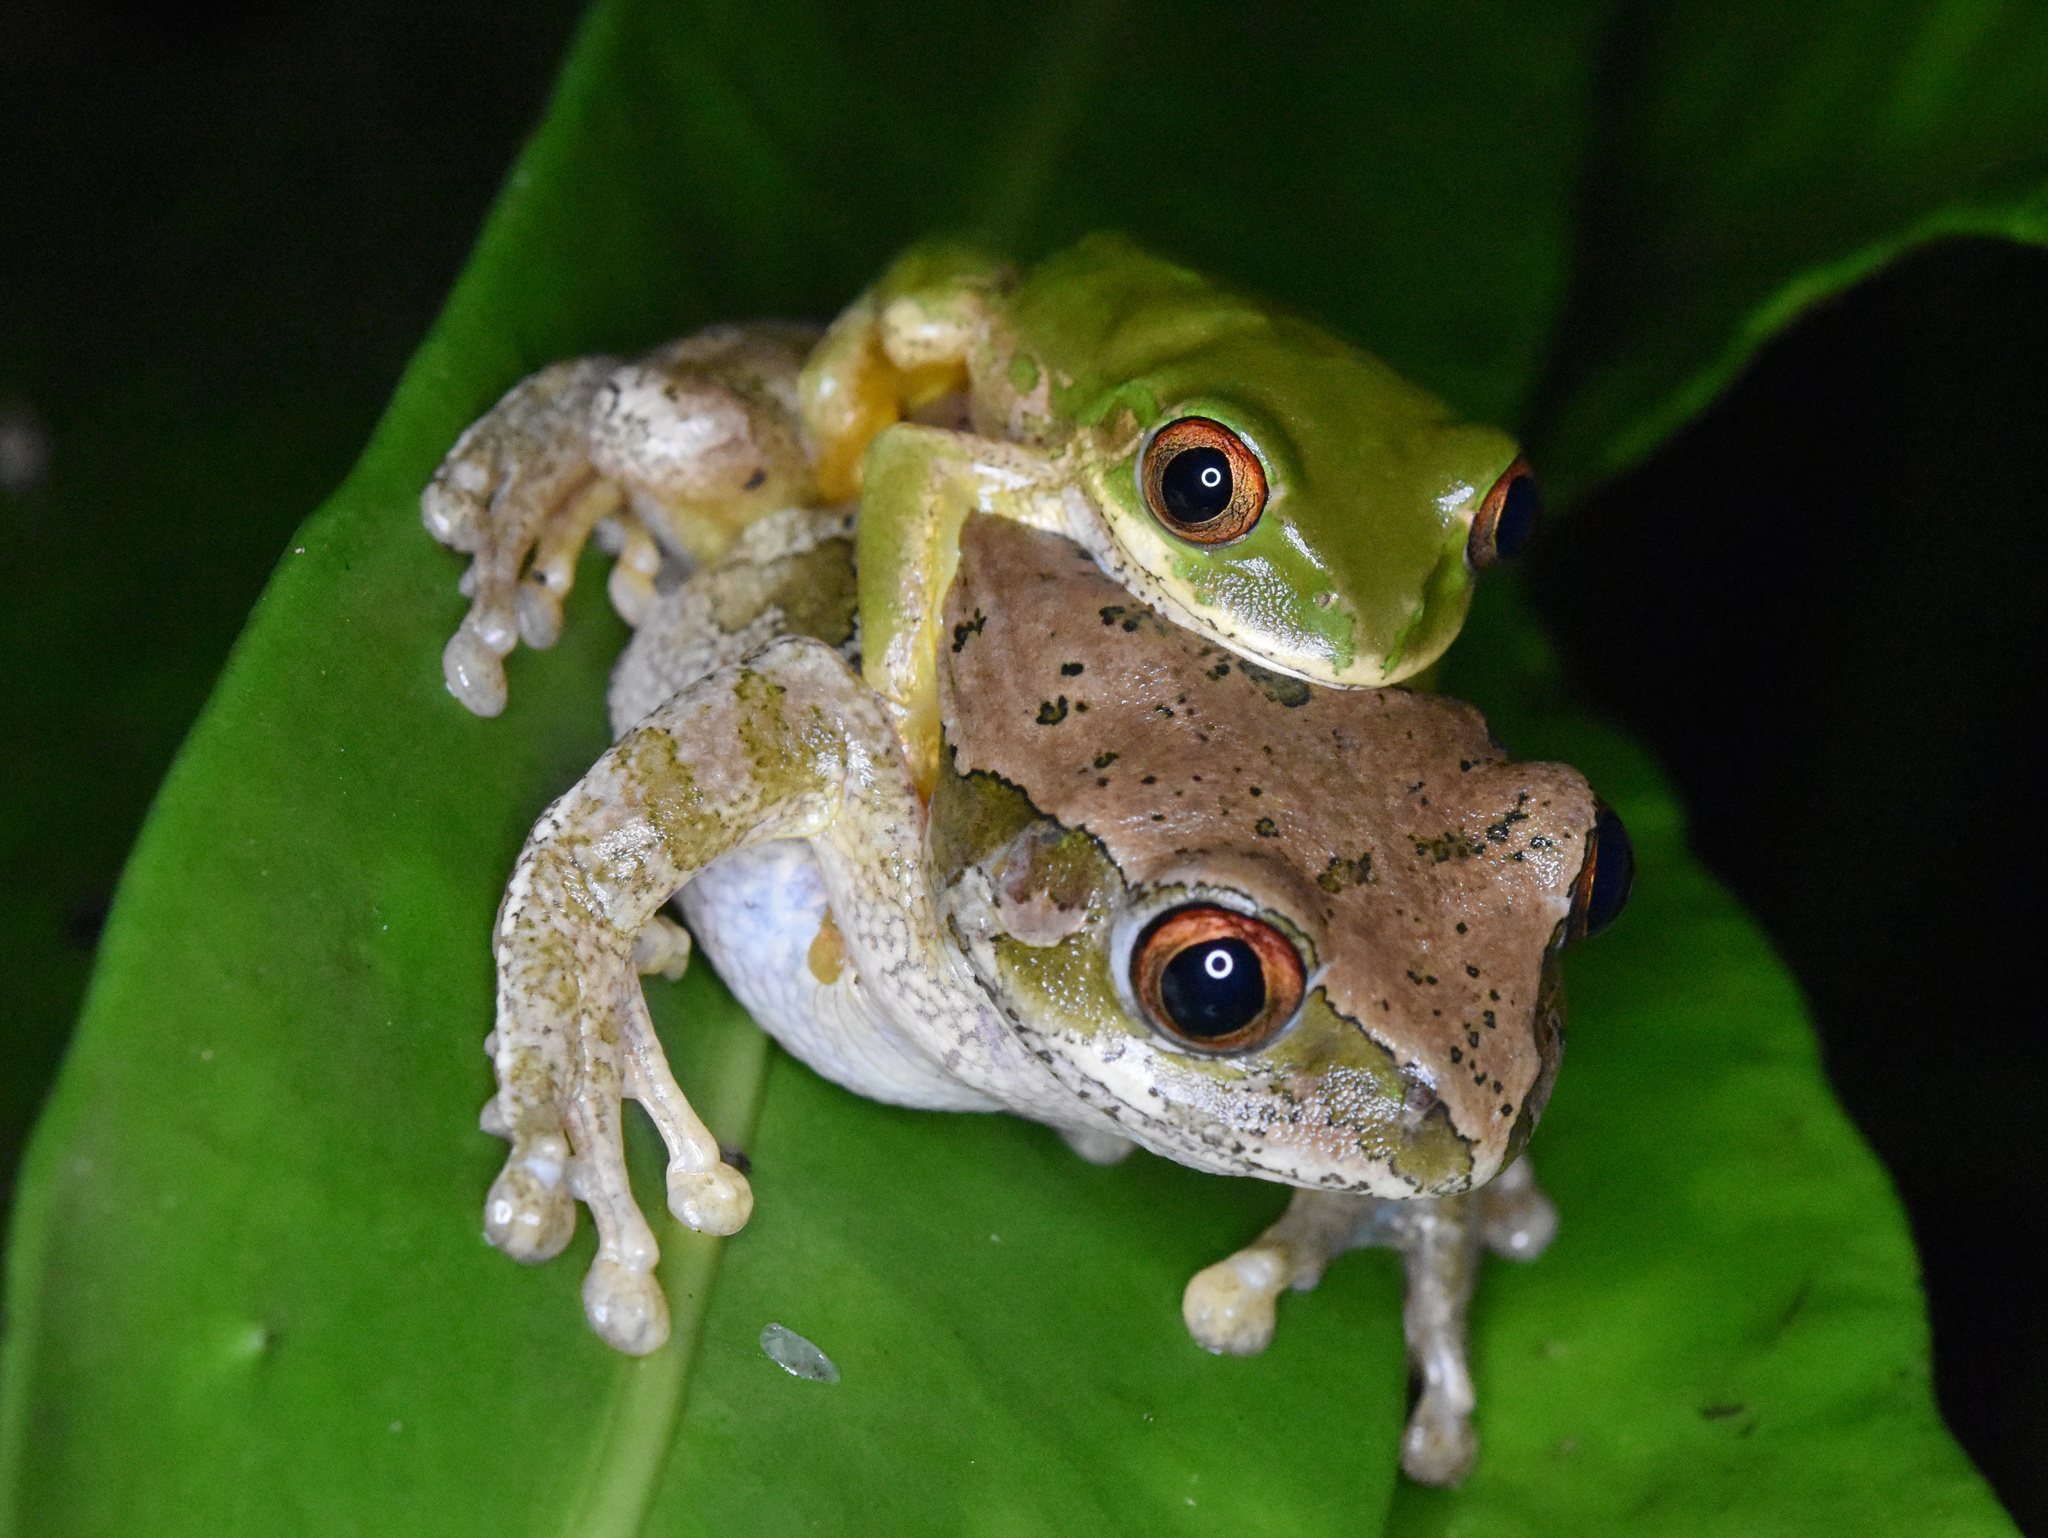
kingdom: Animalia
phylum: Chordata
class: Amphibia
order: Anura
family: Arthroleptidae
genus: Leptopelis
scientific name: Leptopelis natalensis
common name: Natal tree frog
